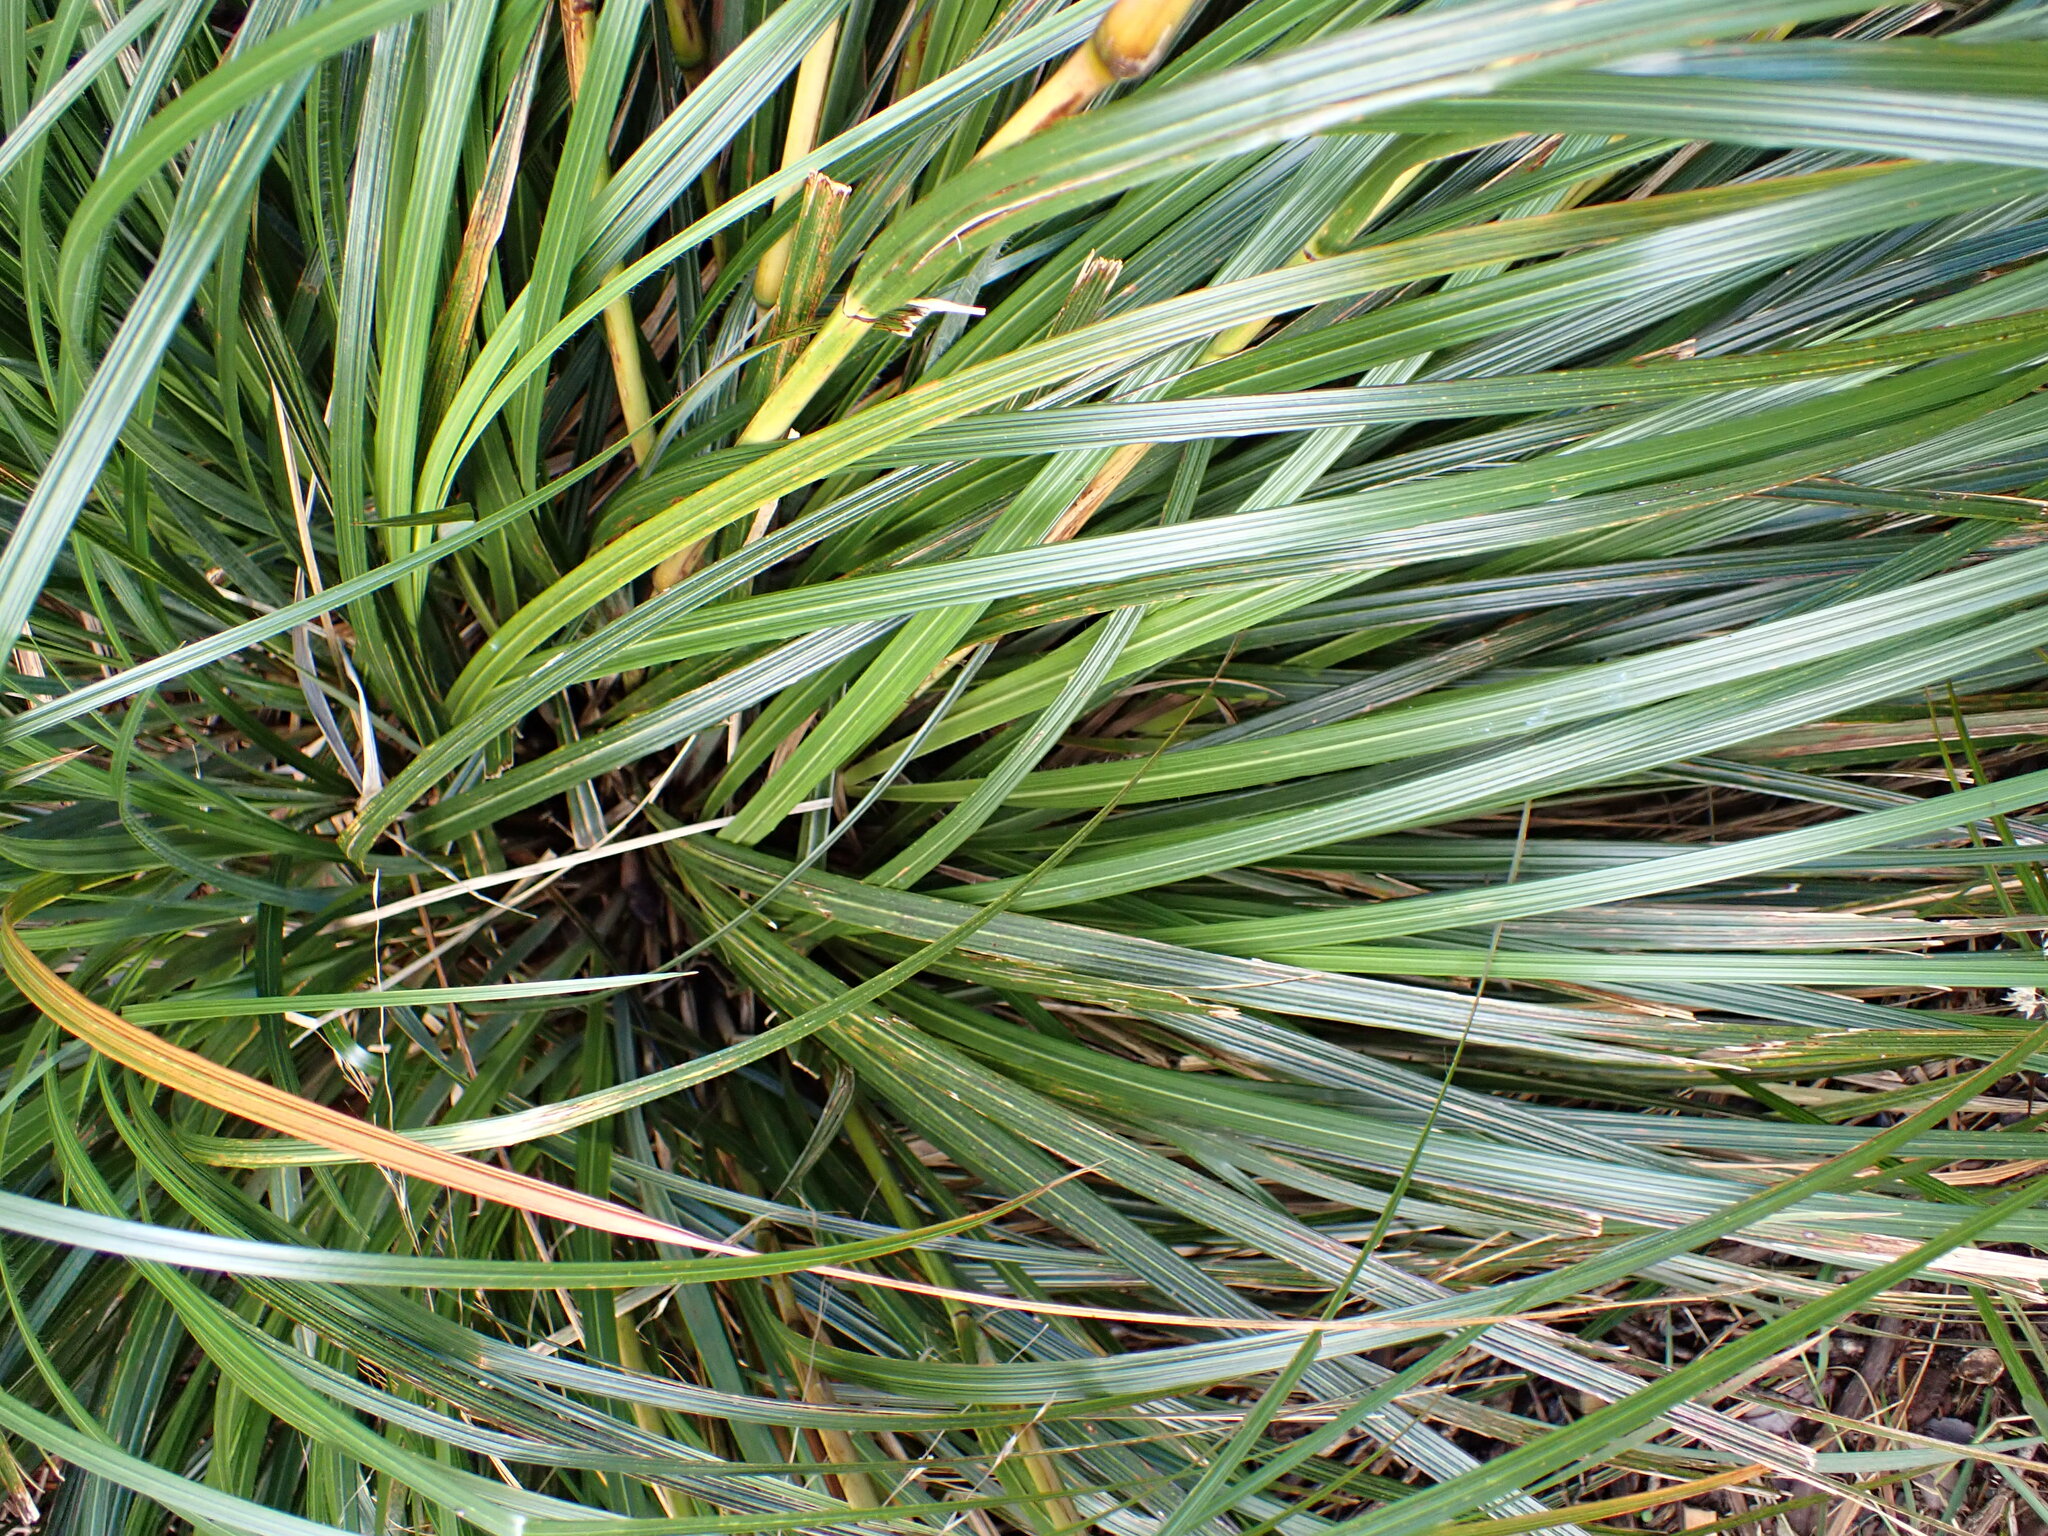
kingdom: Plantae
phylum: Tracheophyta
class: Liliopsida
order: Poales
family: Poaceae
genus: Chionochloa
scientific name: Chionochloa conspicua
